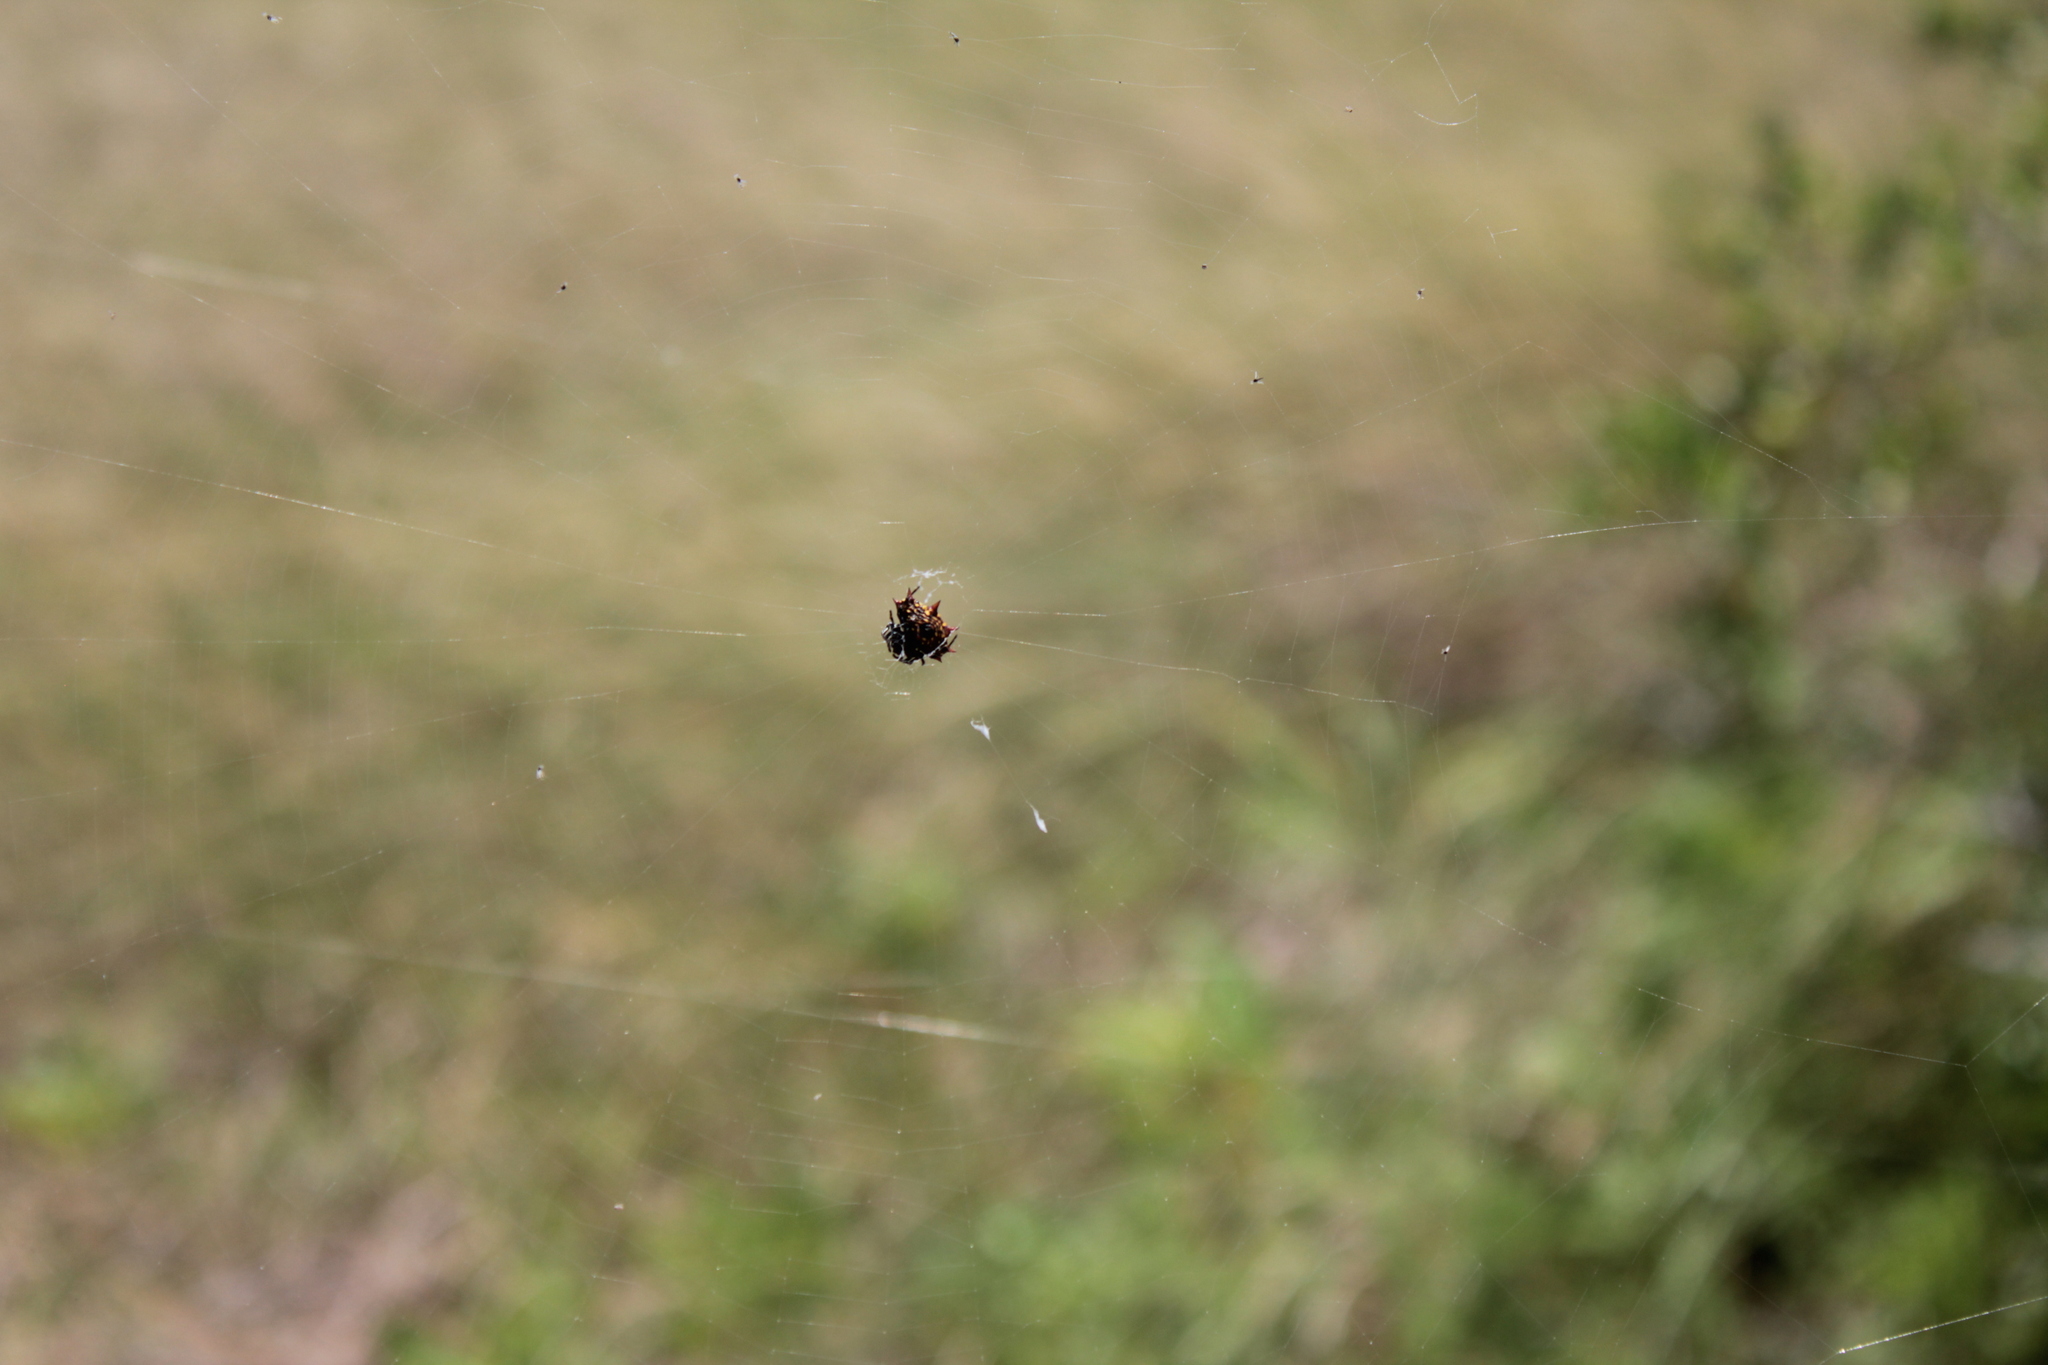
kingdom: Animalia
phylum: Arthropoda
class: Arachnida
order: Araneae
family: Araneidae
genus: Gasteracantha
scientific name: Gasteracantha cancriformis
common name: Orb weavers
